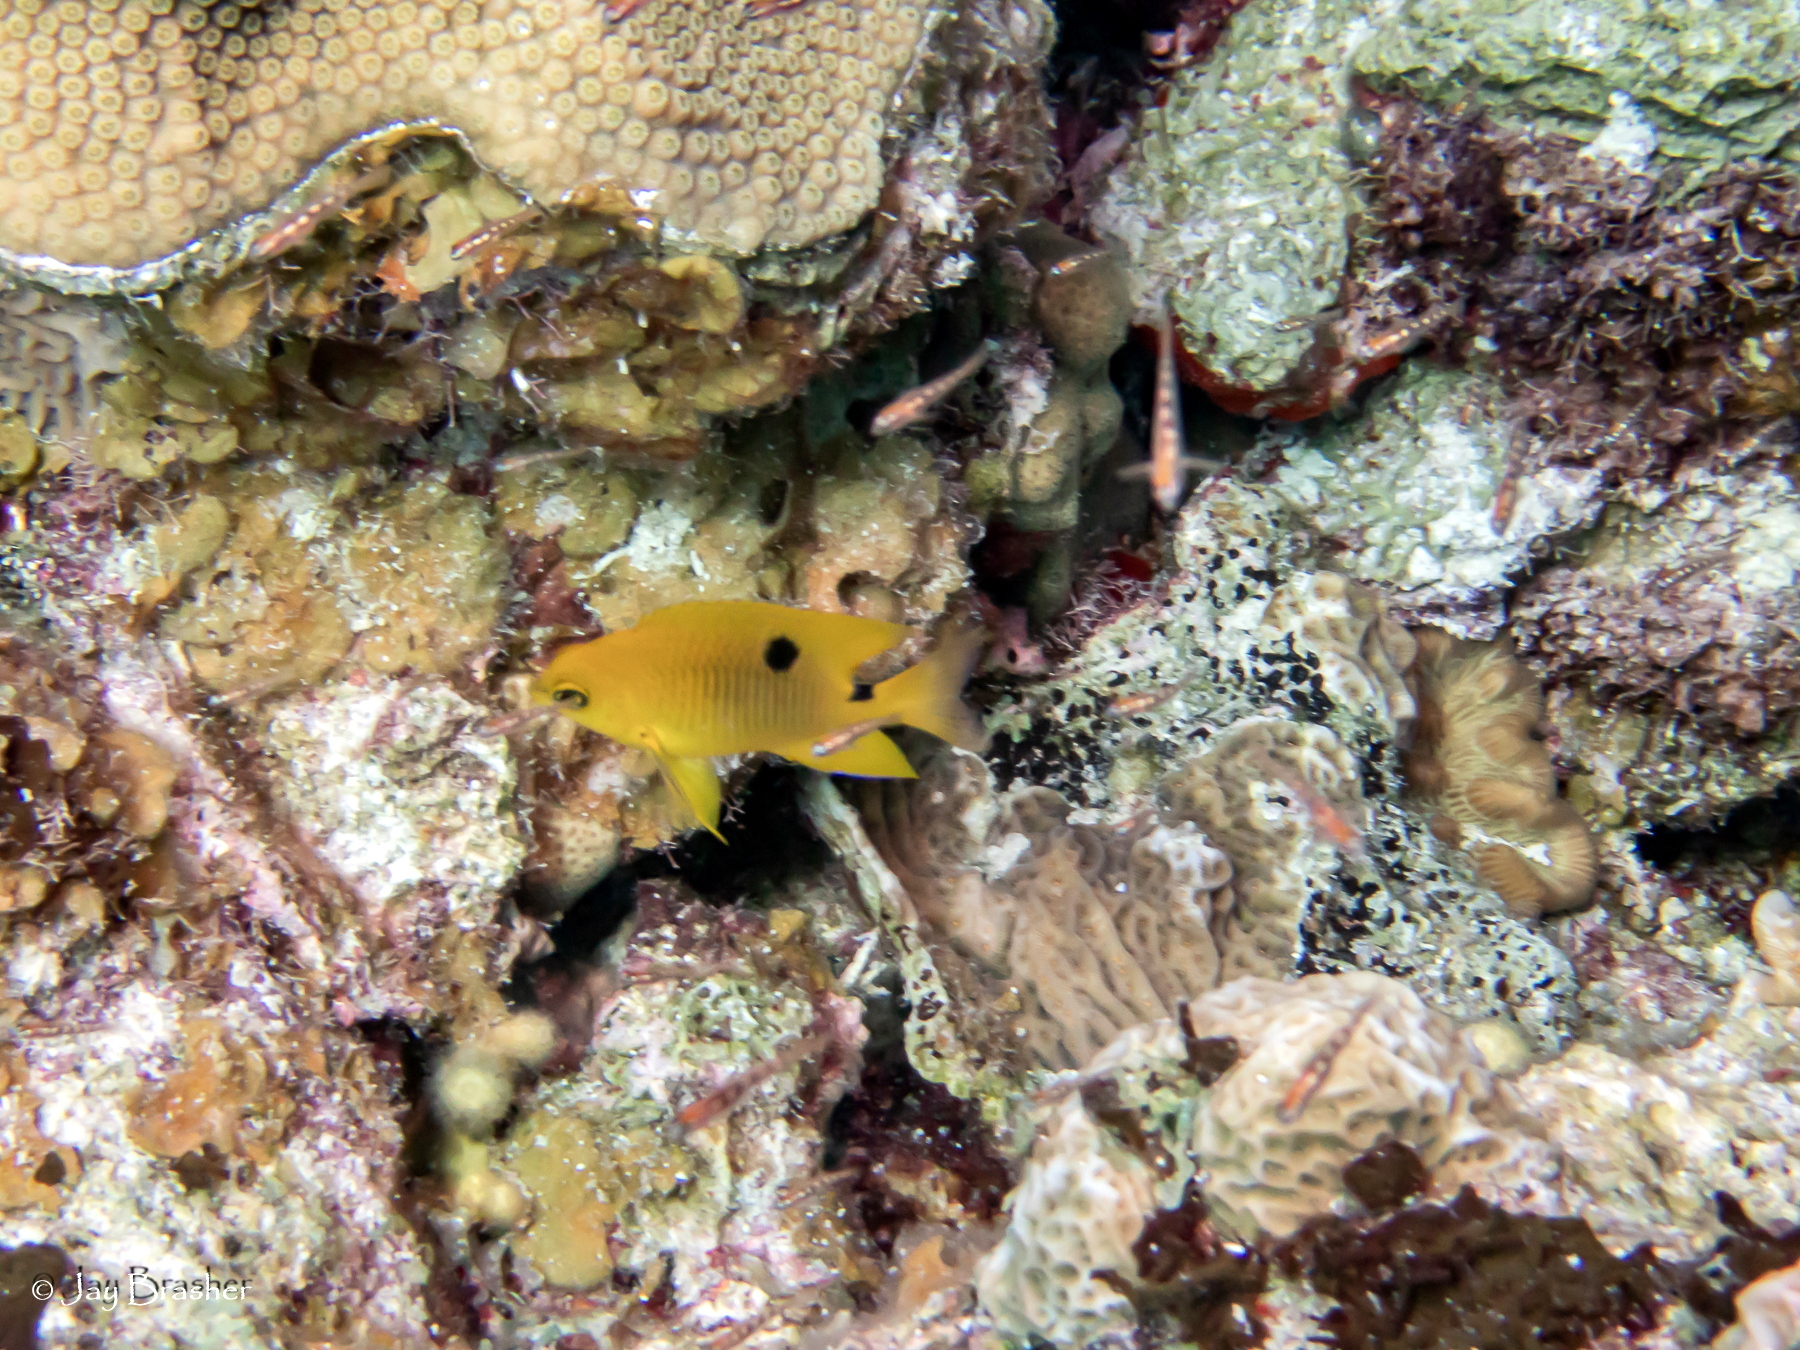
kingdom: Animalia
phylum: Porifera
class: Demospongiae
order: Clionaida
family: Clionaidae
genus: Cliona
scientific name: Cliona aprica
